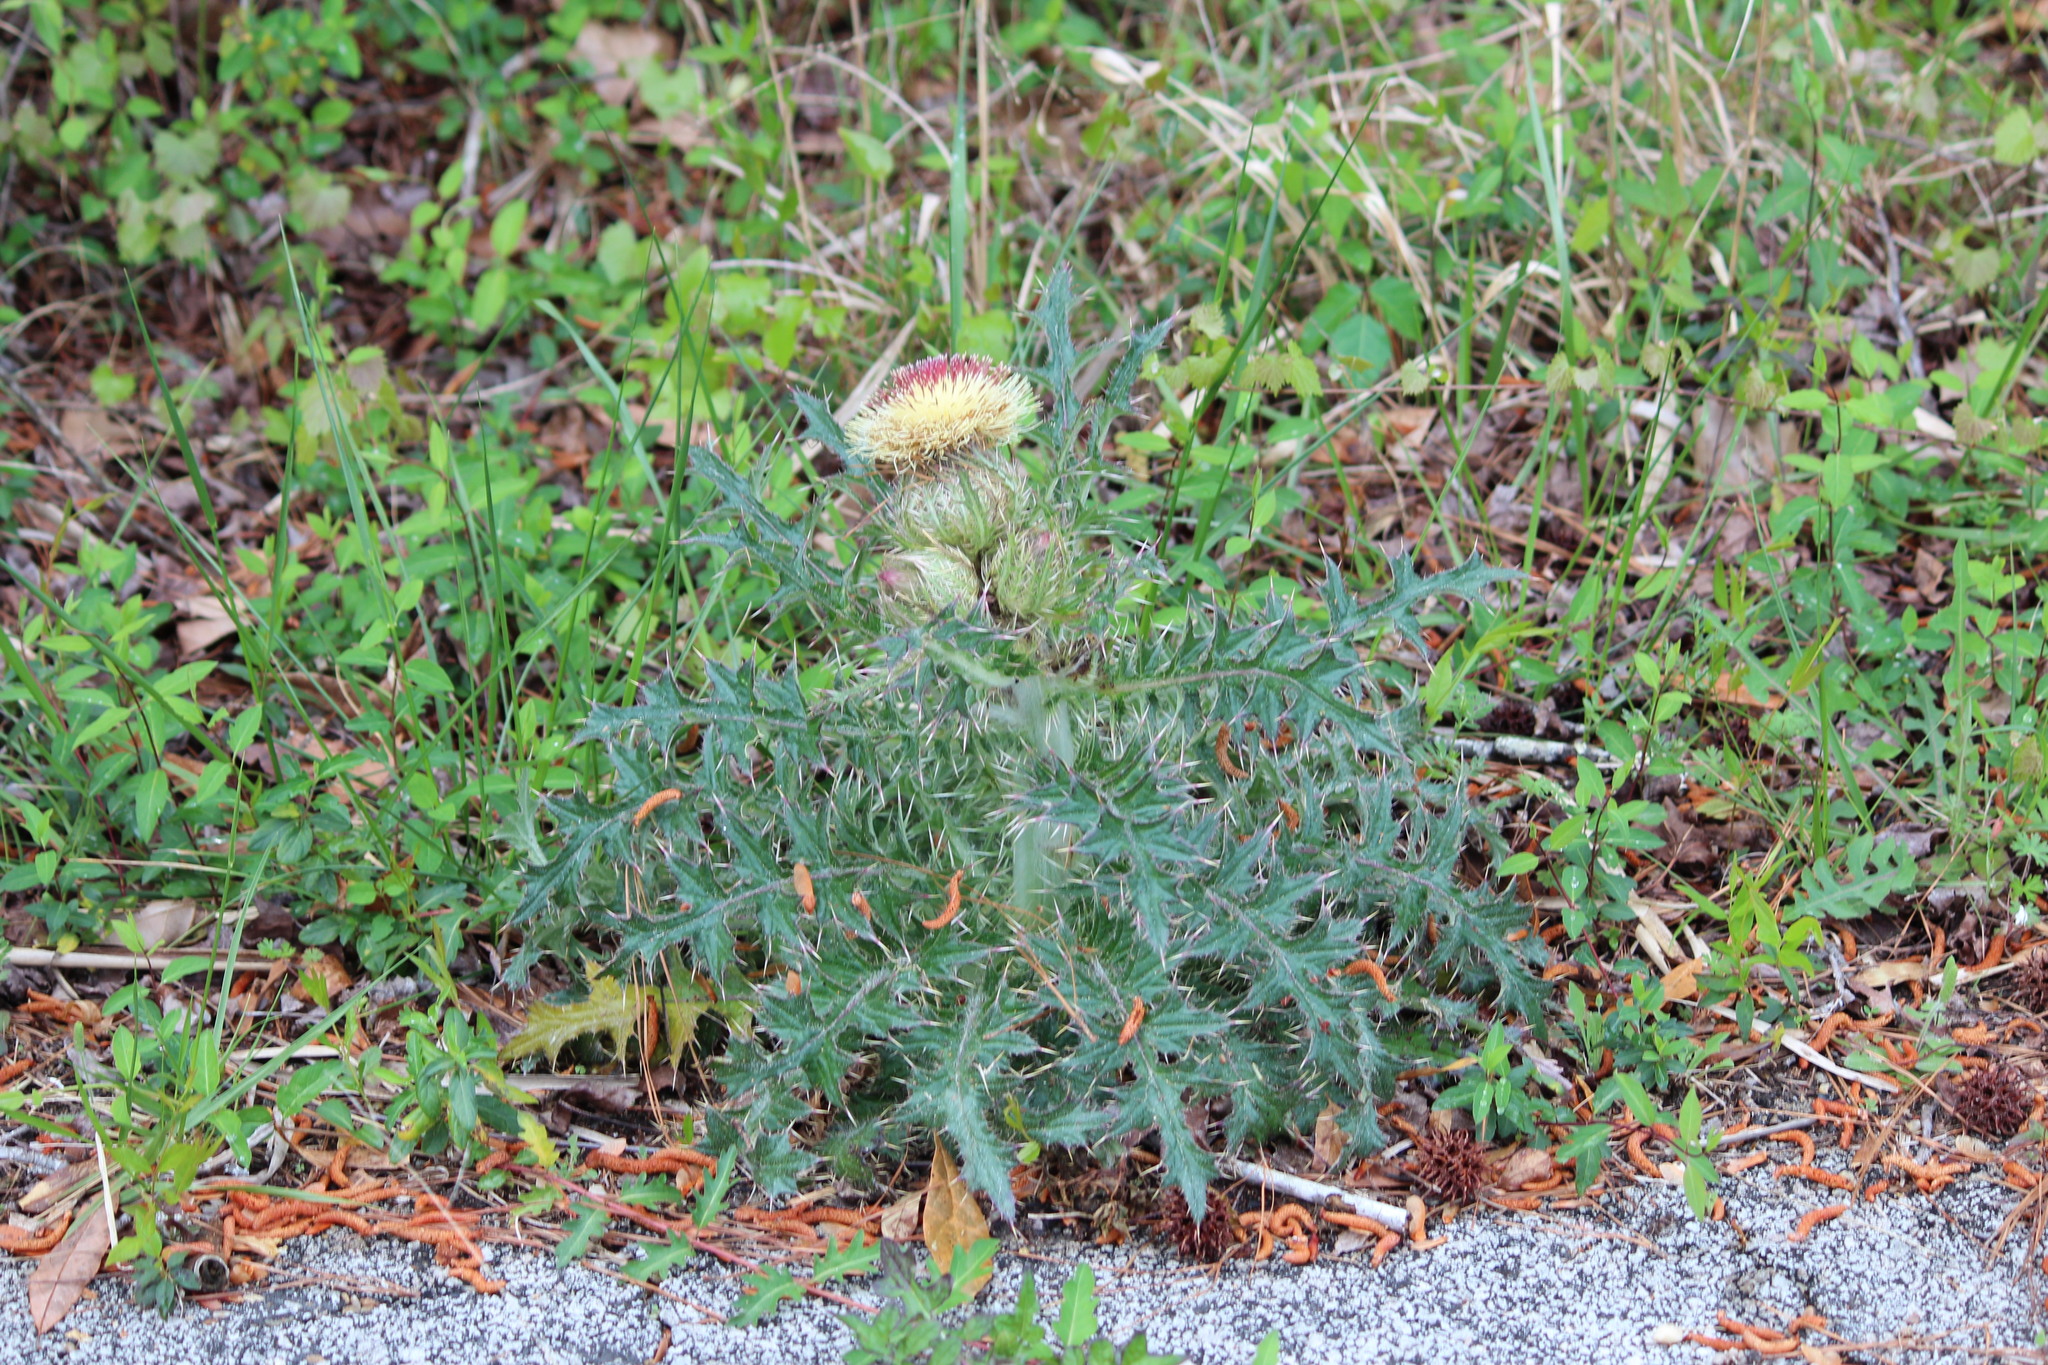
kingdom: Plantae
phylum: Tracheophyta
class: Magnoliopsida
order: Asterales
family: Asteraceae
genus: Cirsium
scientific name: Cirsium horridulum
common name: Bristly thistle
